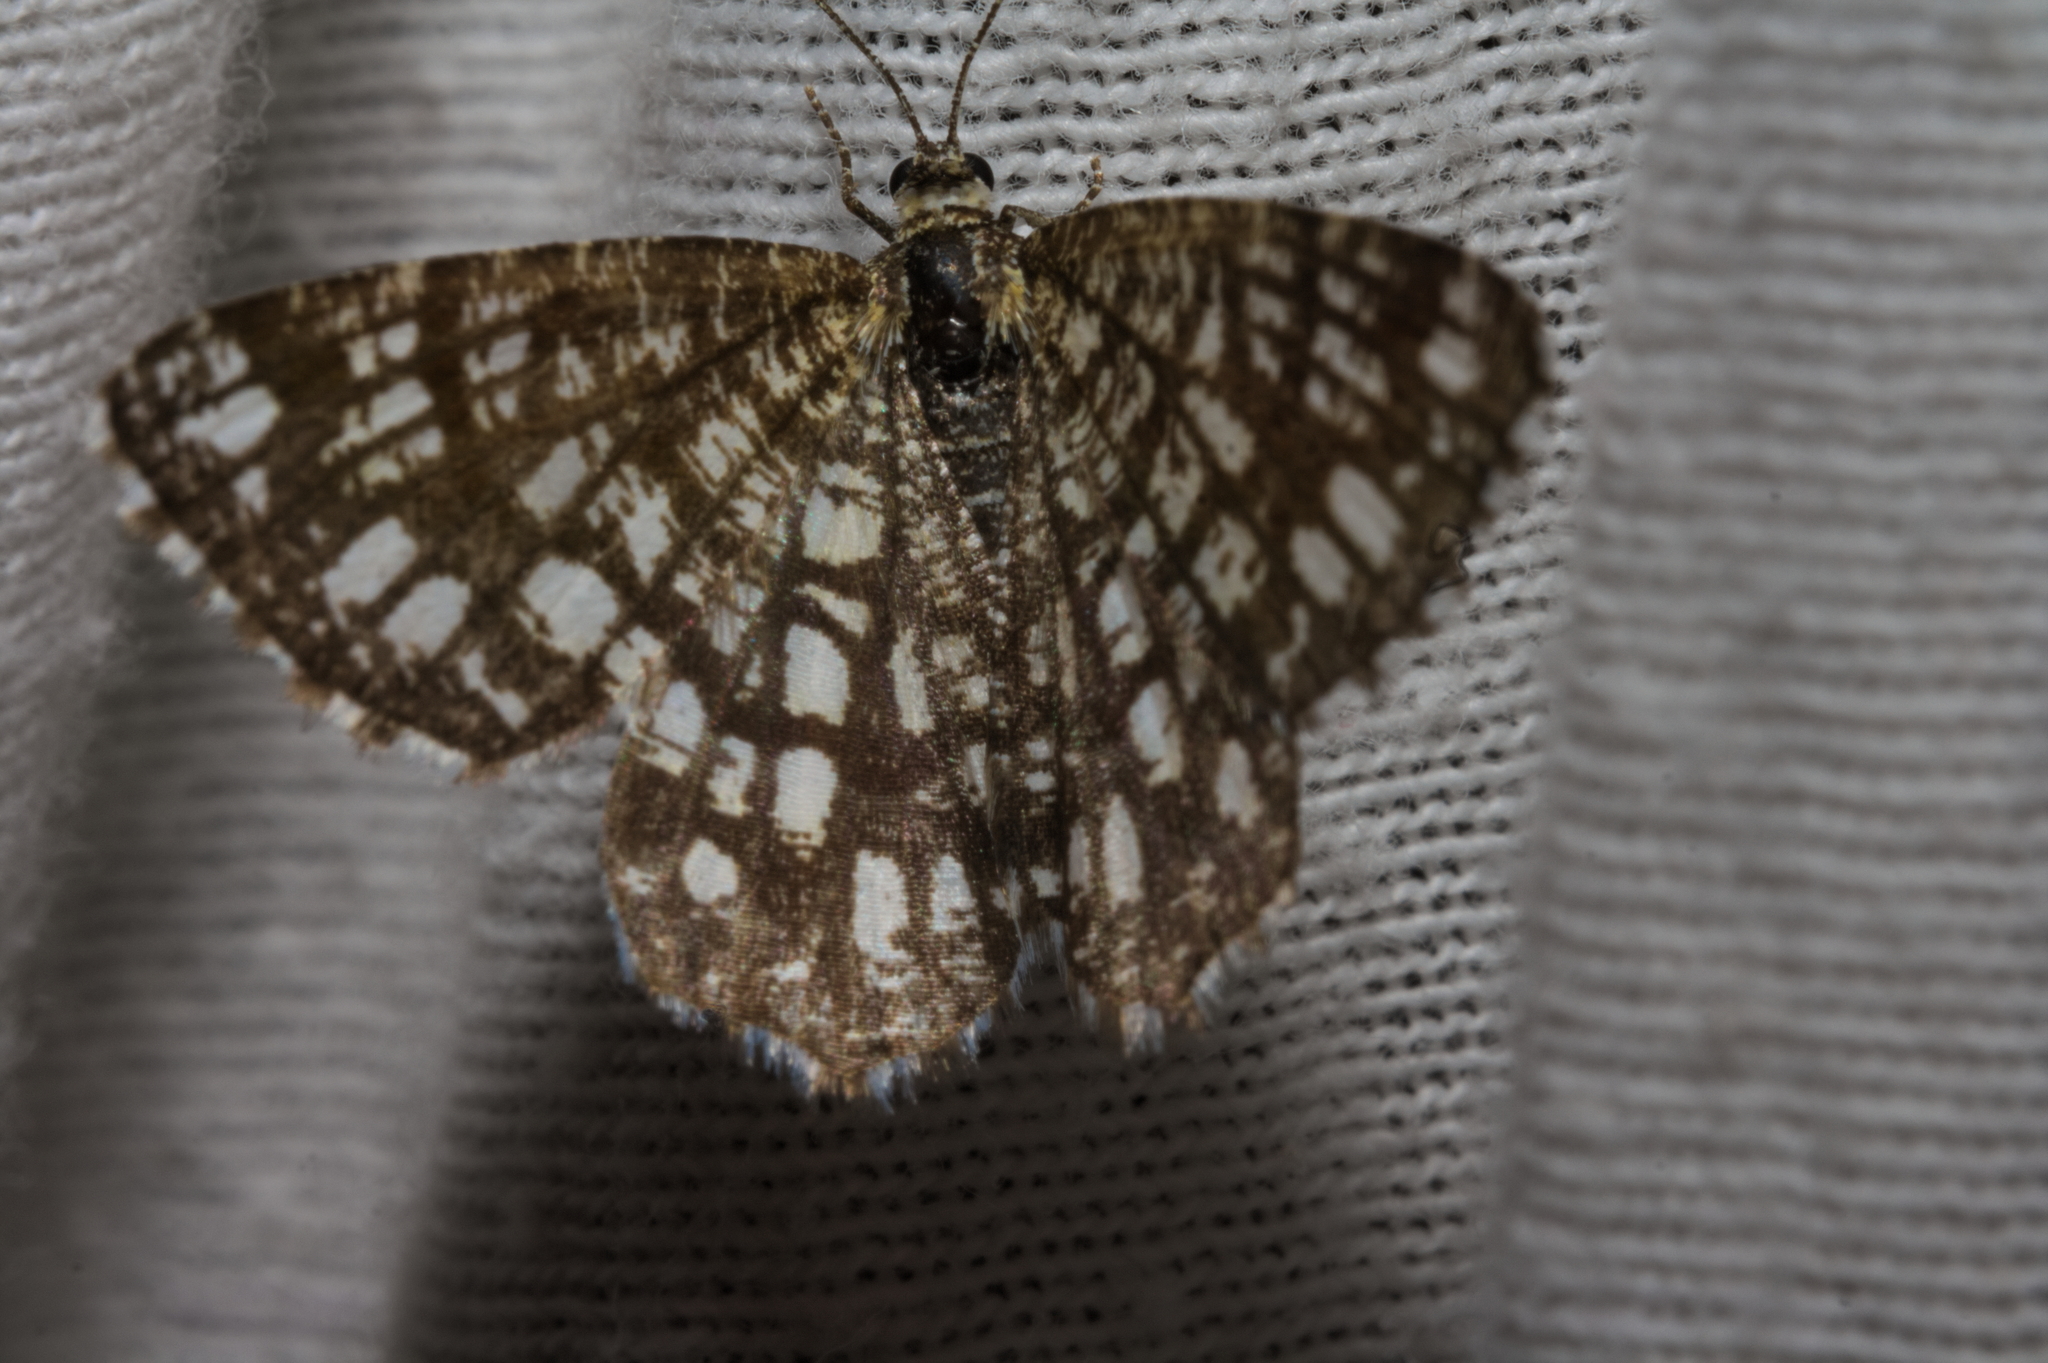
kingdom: Animalia
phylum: Arthropoda
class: Insecta
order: Lepidoptera
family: Geometridae
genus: Chiasmia
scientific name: Chiasmia clathrata
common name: Latticed heath
